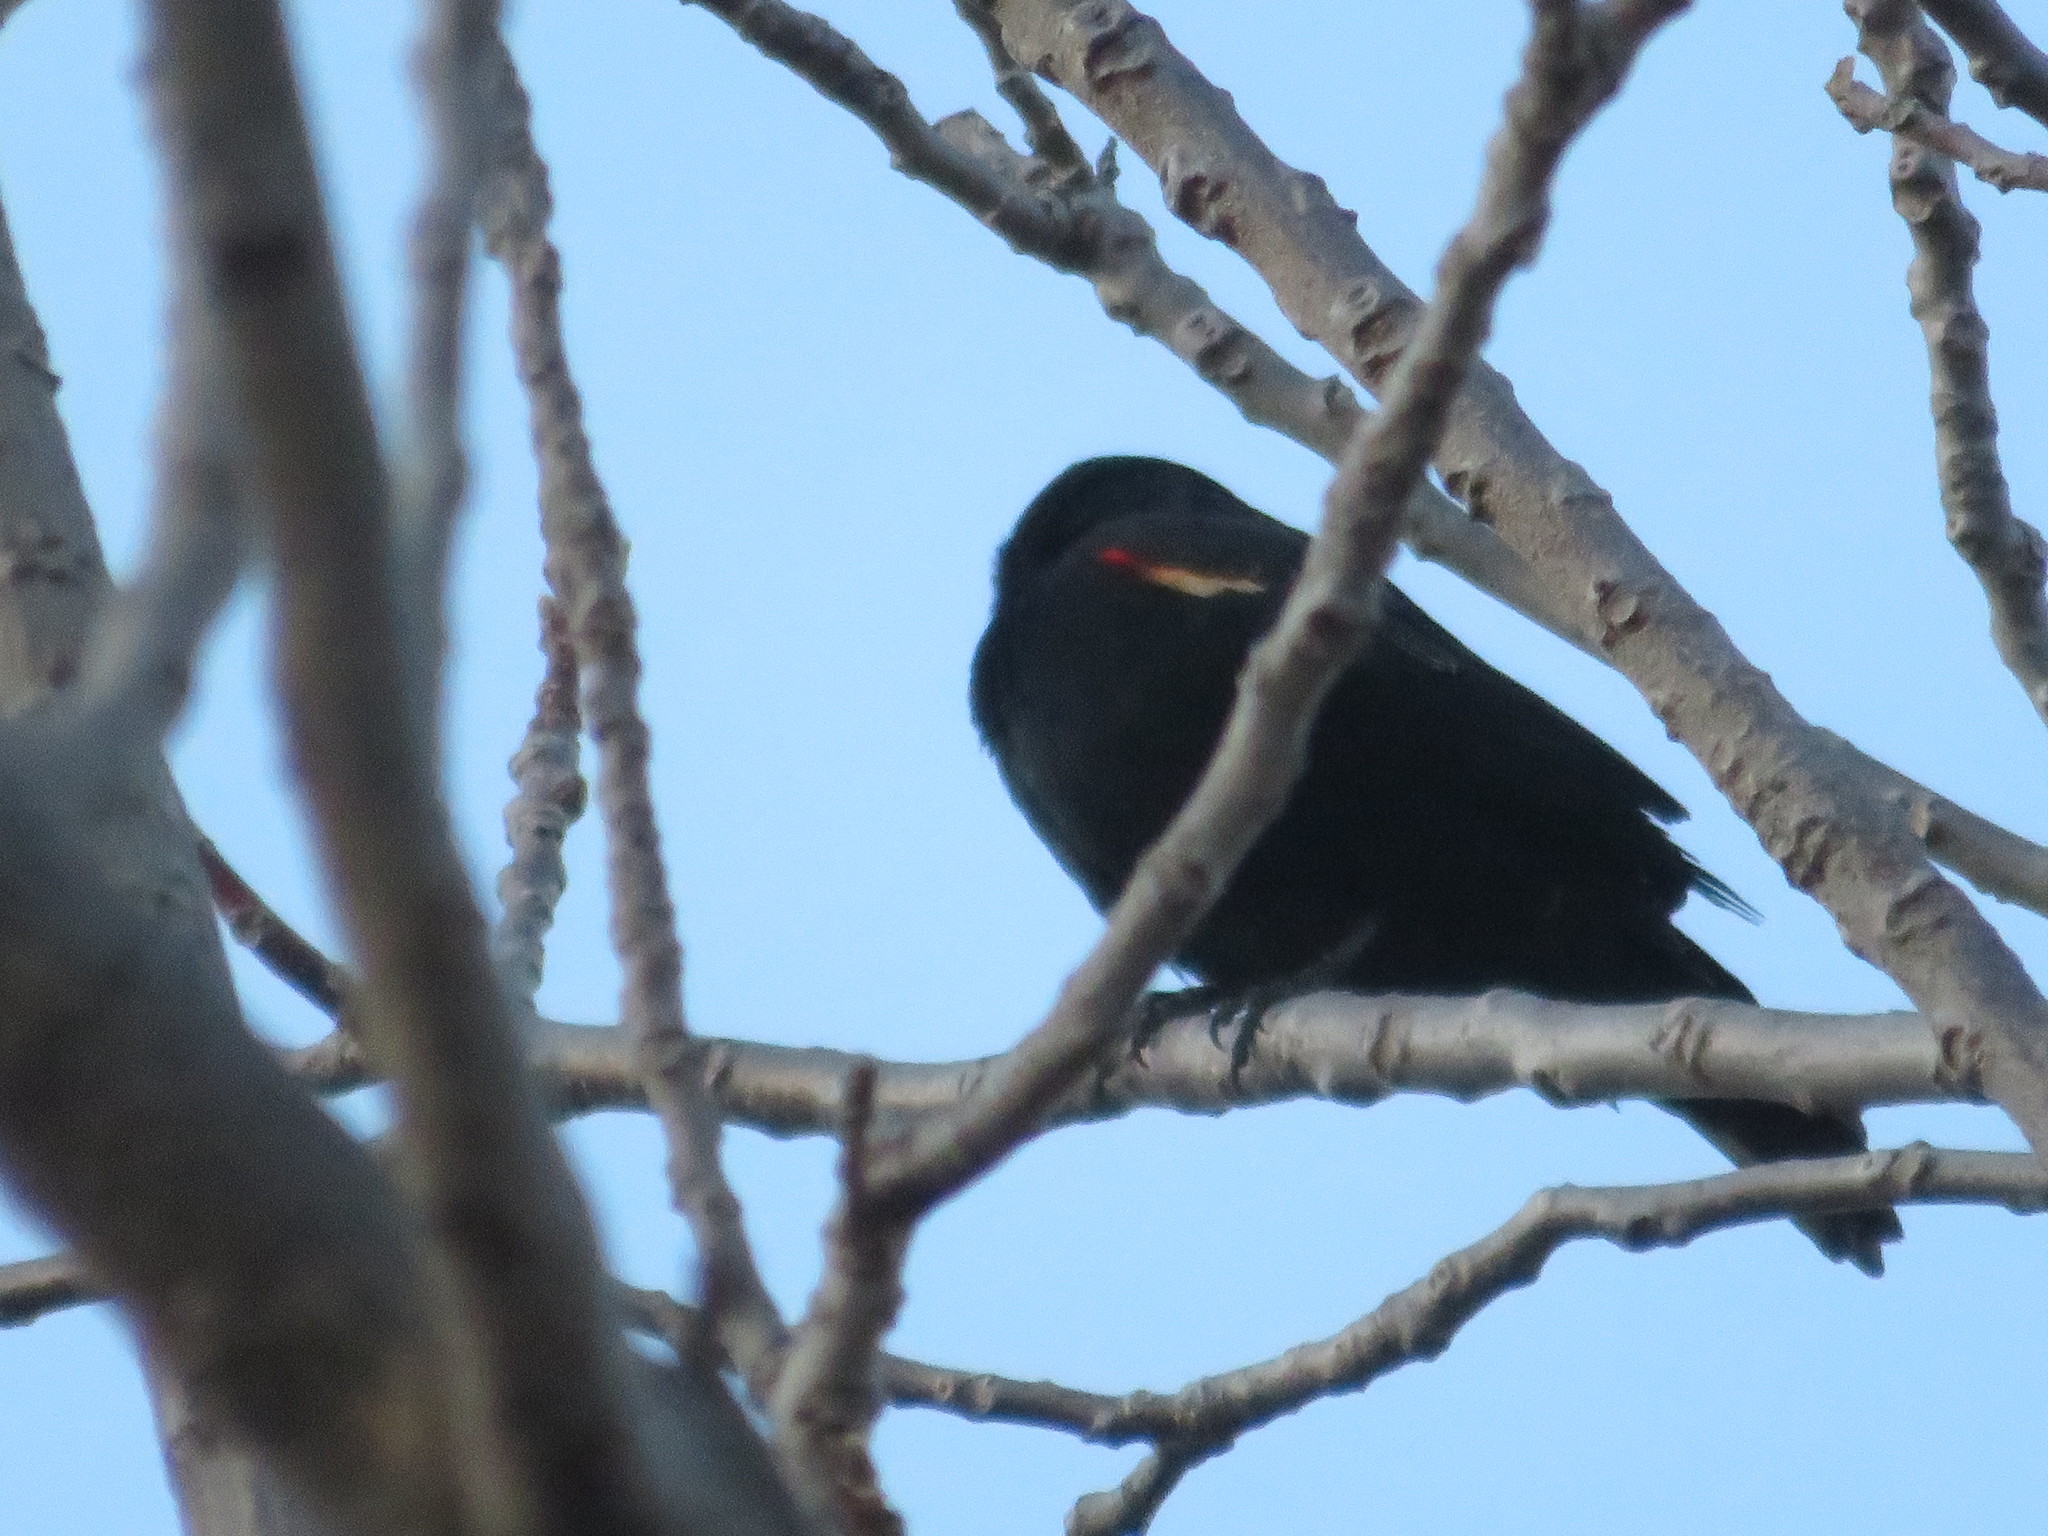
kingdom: Animalia
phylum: Chordata
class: Aves
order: Passeriformes
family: Icteridae
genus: Agelaius
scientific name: Agelaius phoeniceus
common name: Red-winged blackbird
